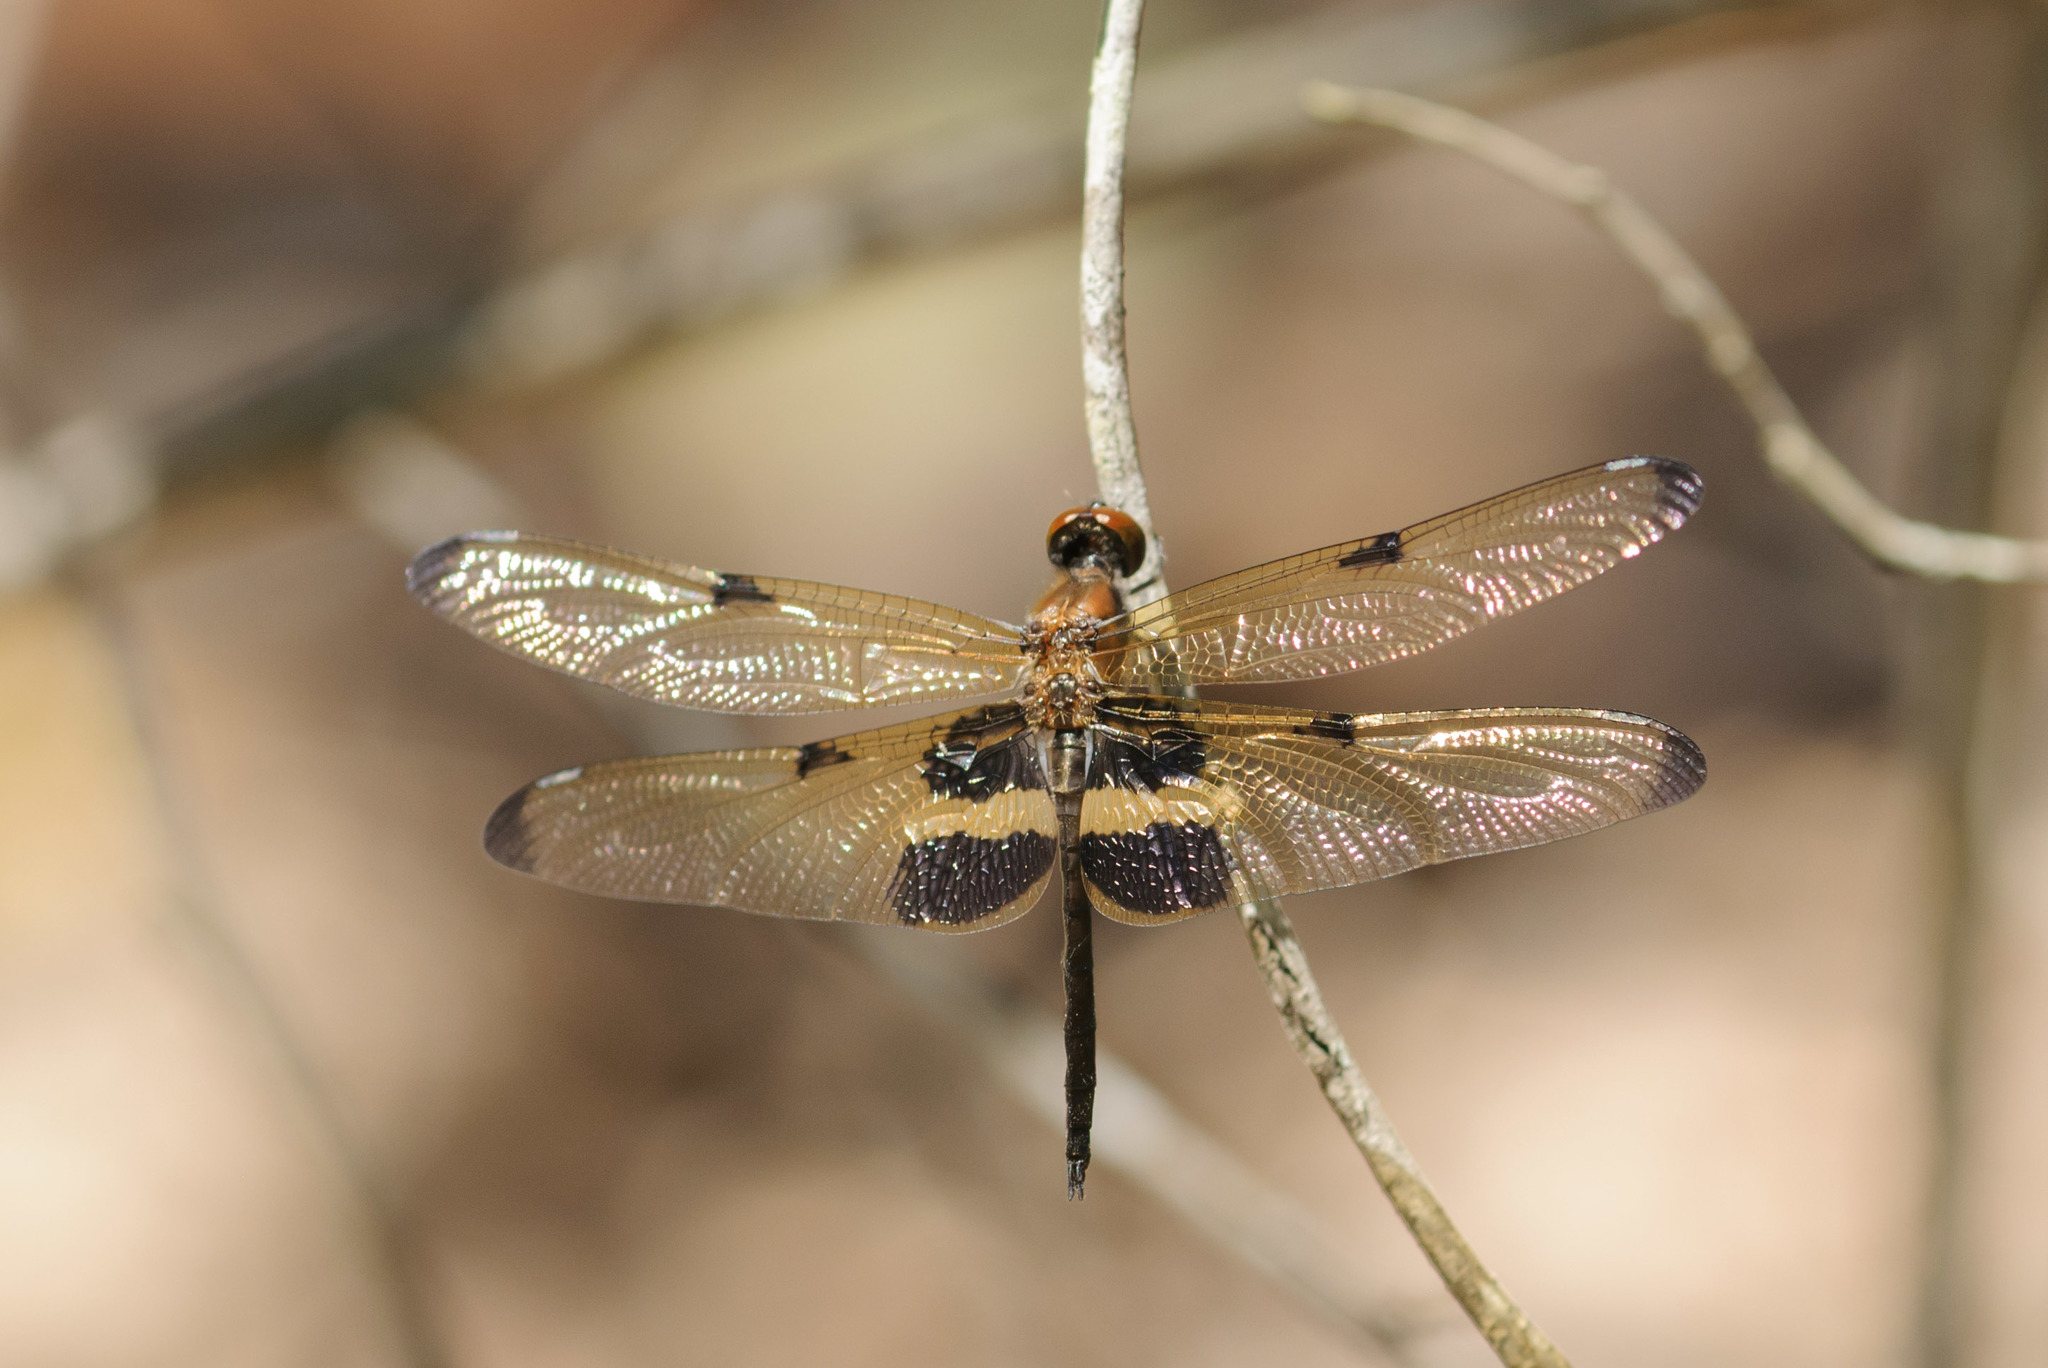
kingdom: Animalia
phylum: Arthropoda
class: Insecta
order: Odonata
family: Libellulidae
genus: Rhyothemis
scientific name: Rhyothemis phyllis
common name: Yellow-barred flutterer
